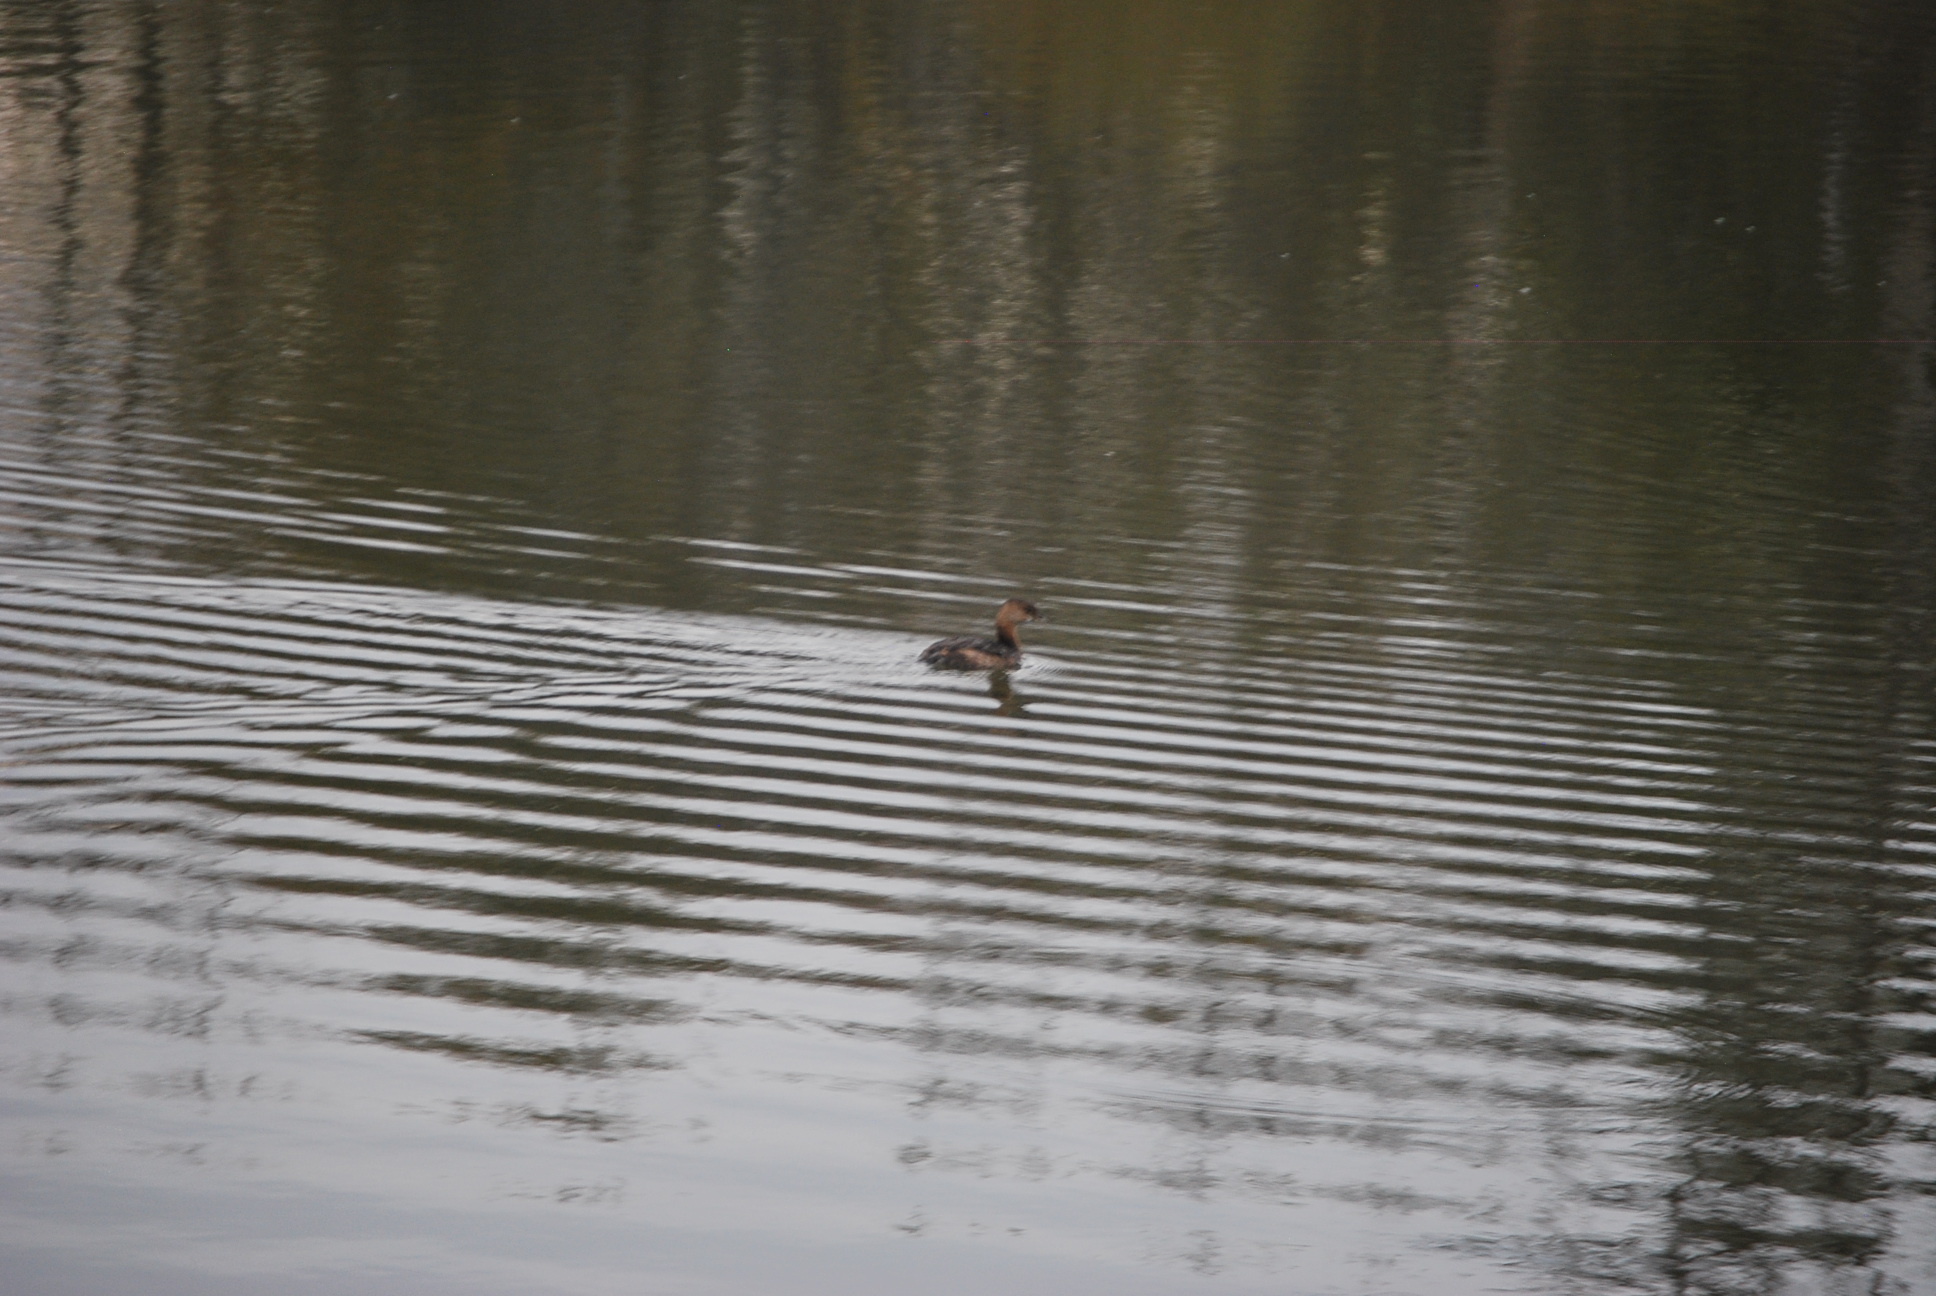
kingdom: Animalia
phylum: Chordata
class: Aves
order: Podicipediformes
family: Podicipedidae
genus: Podilymbus
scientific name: Podilymbus podiceps
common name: Pied-billed grebe
